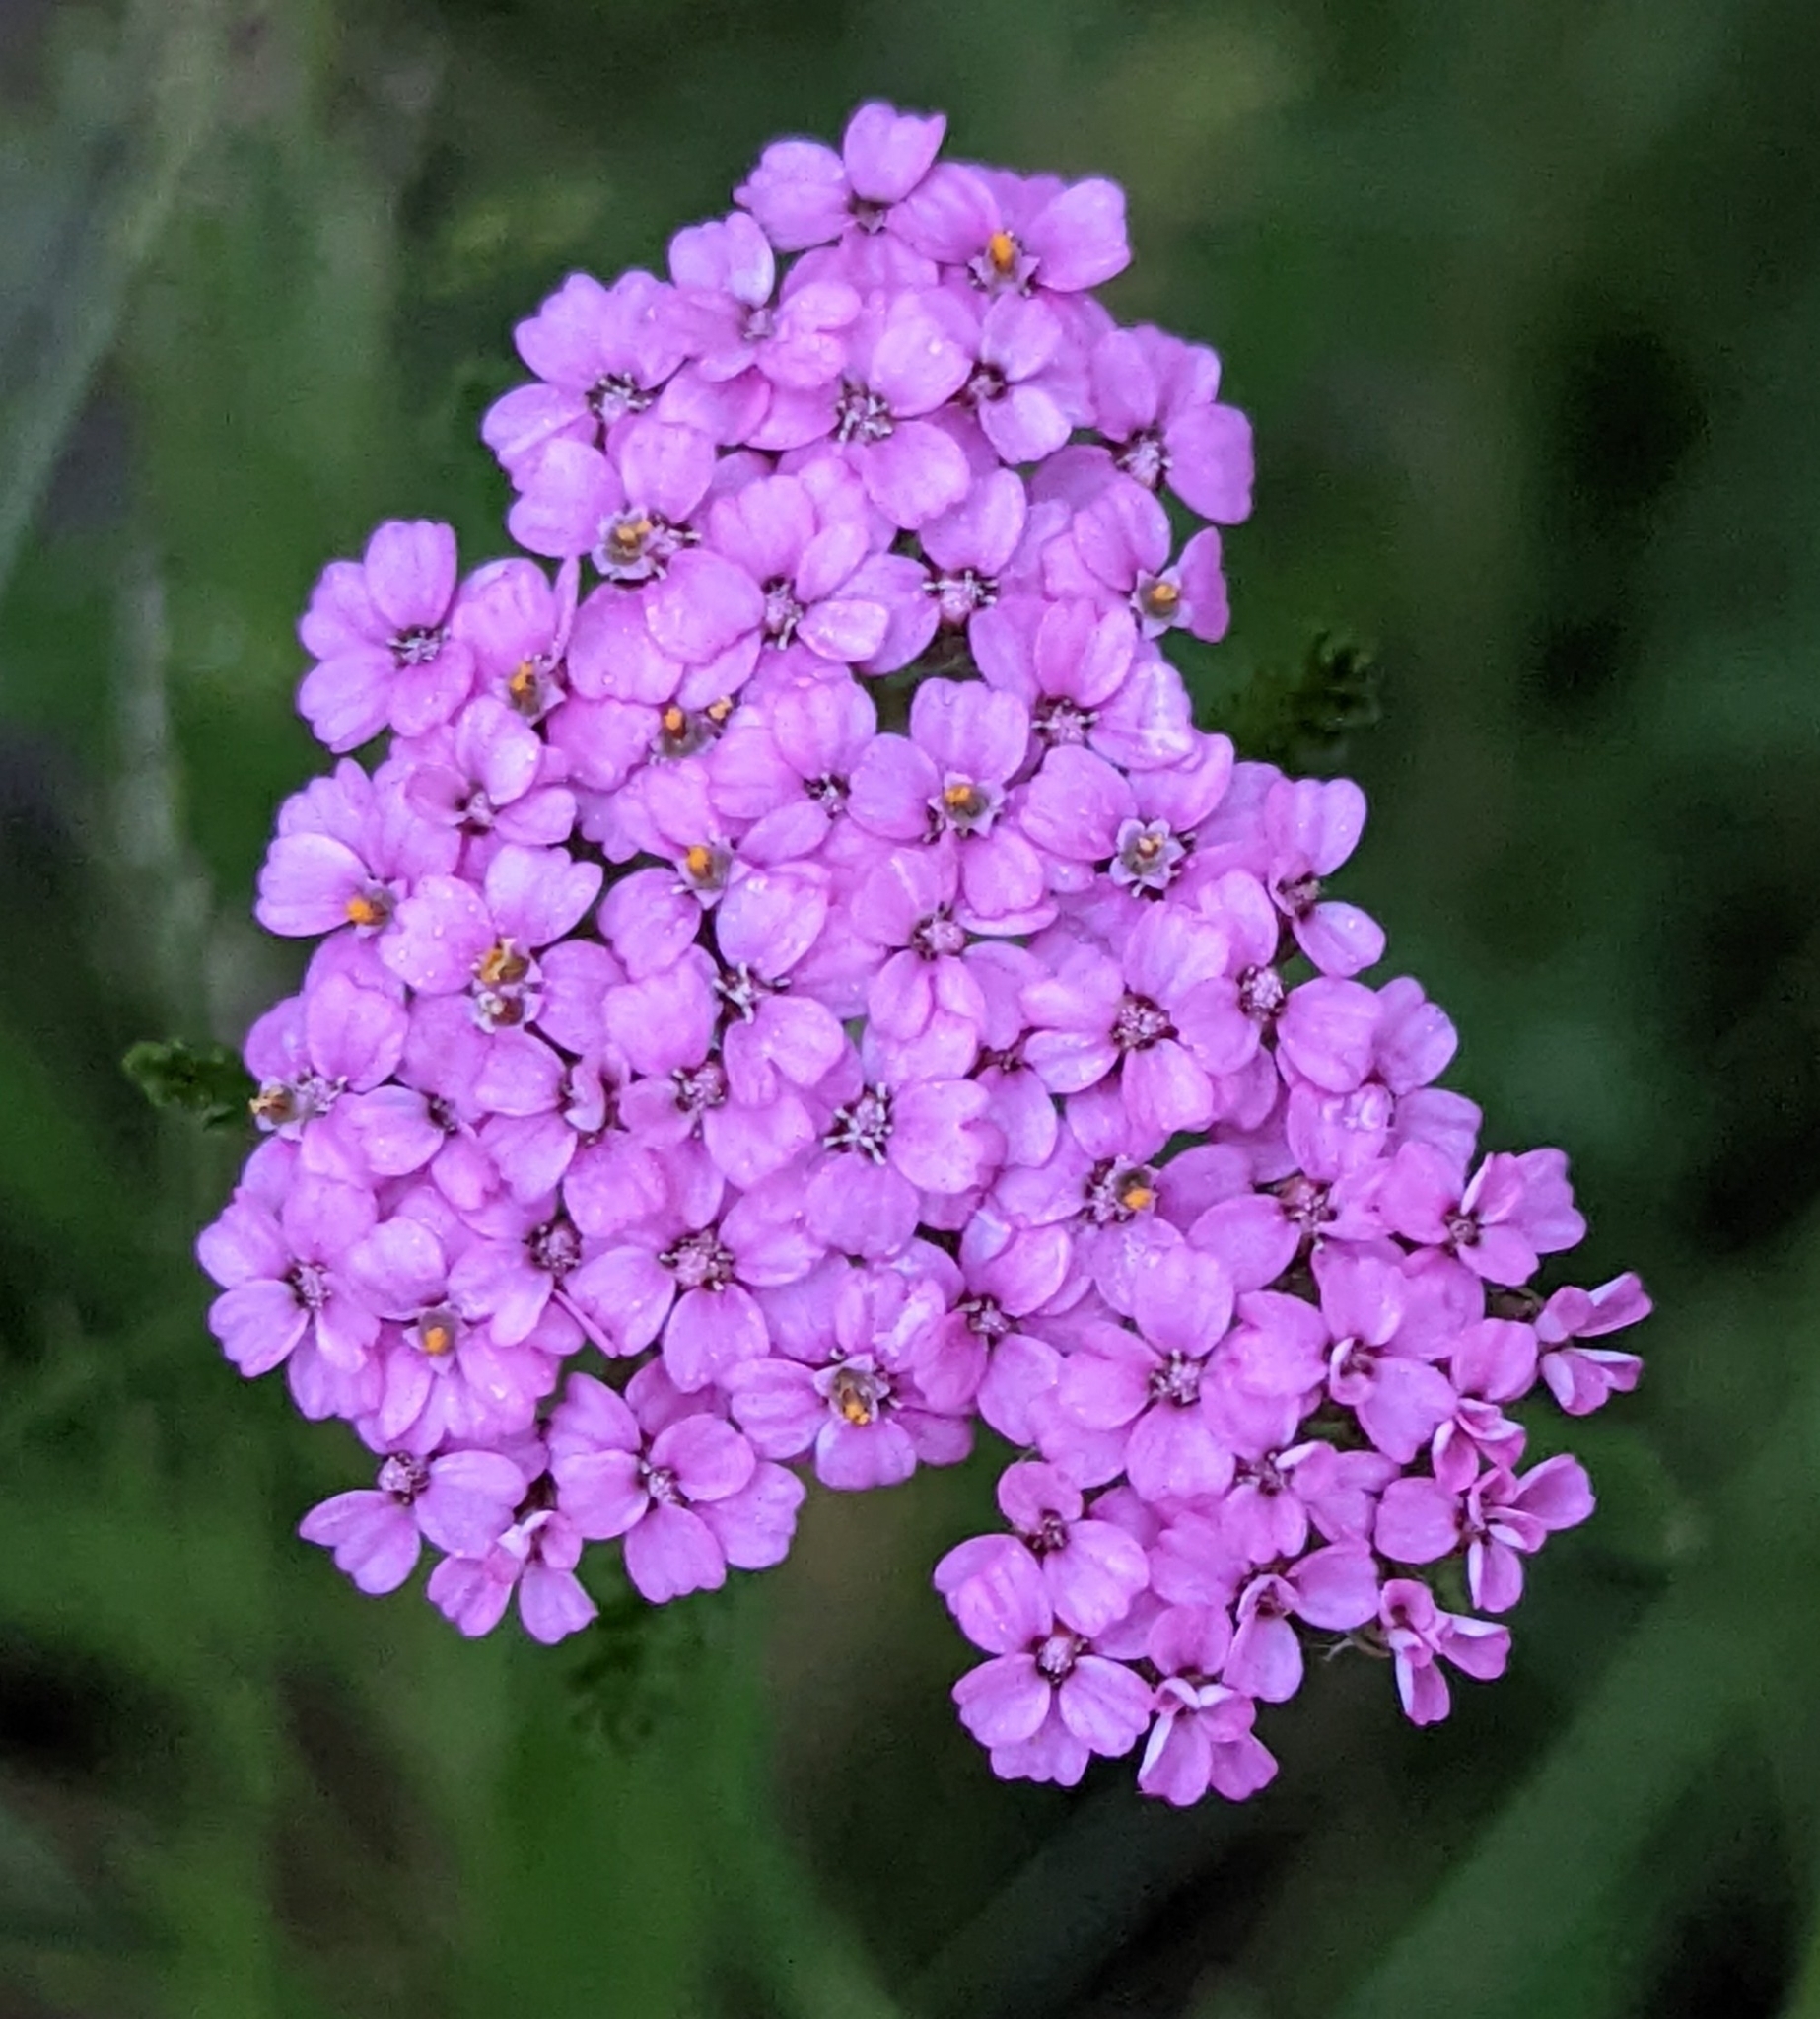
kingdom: Plantae
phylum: Tracheophyta
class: Magnoliopsida
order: Asterales
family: Asteraceae
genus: Achillea
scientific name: Achillea millefolium
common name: Yarrow
